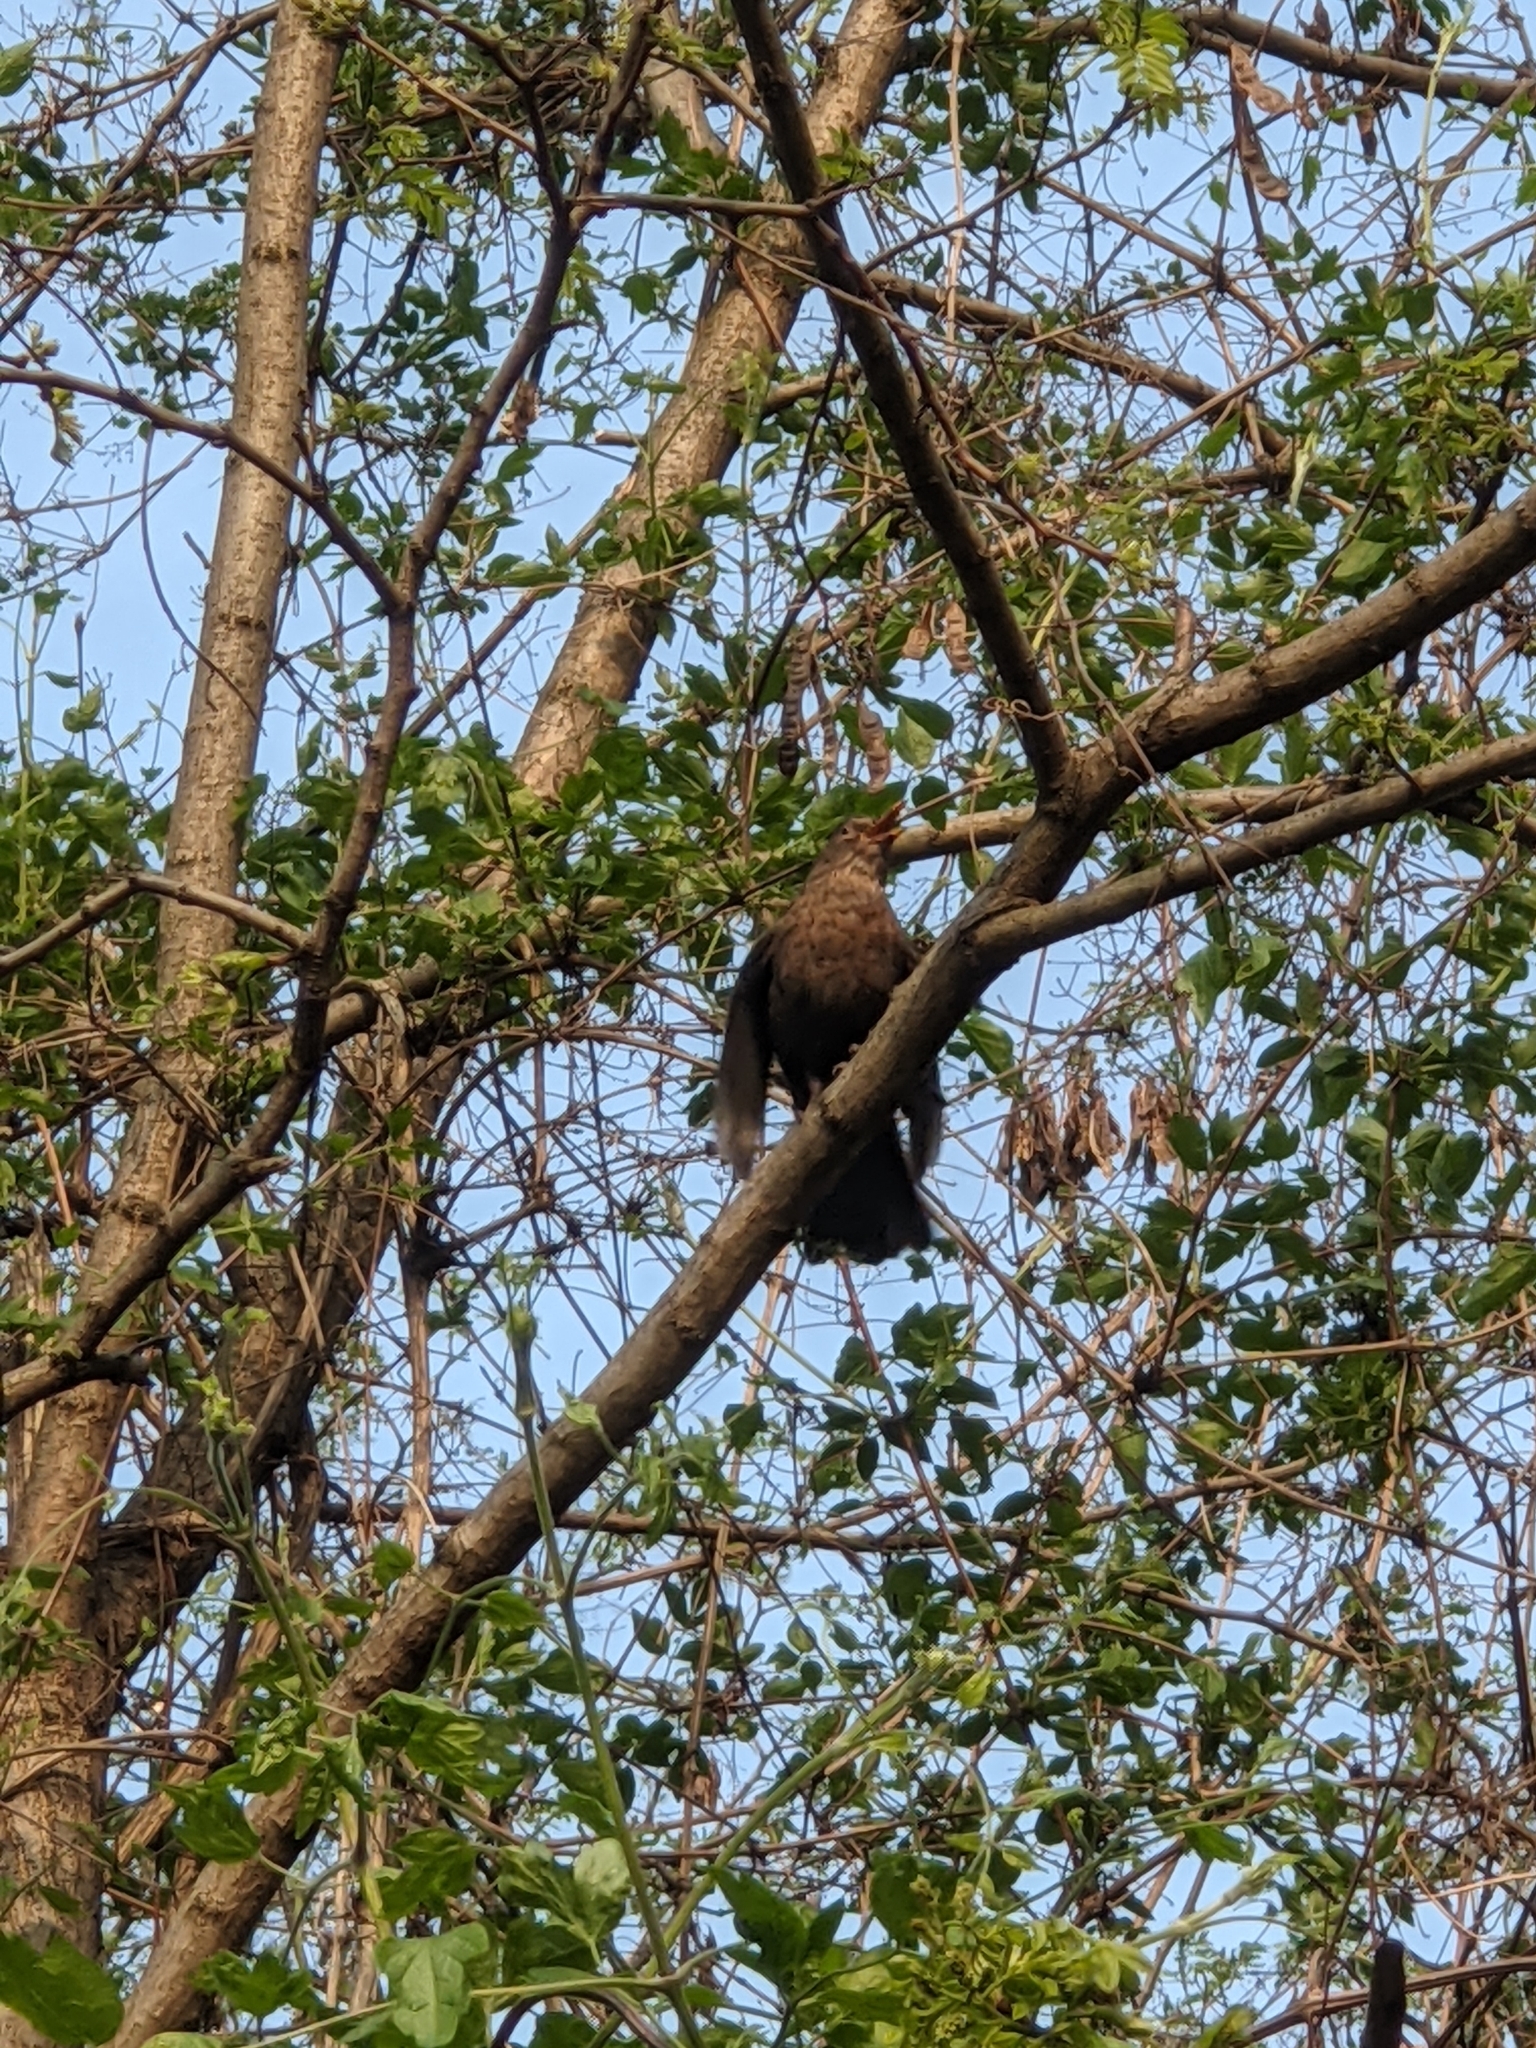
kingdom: Animalia
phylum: Chordata
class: Aves
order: Passeriformes
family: Turdidae
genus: Turdus
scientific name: Turdus merula
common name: Common blackbird
